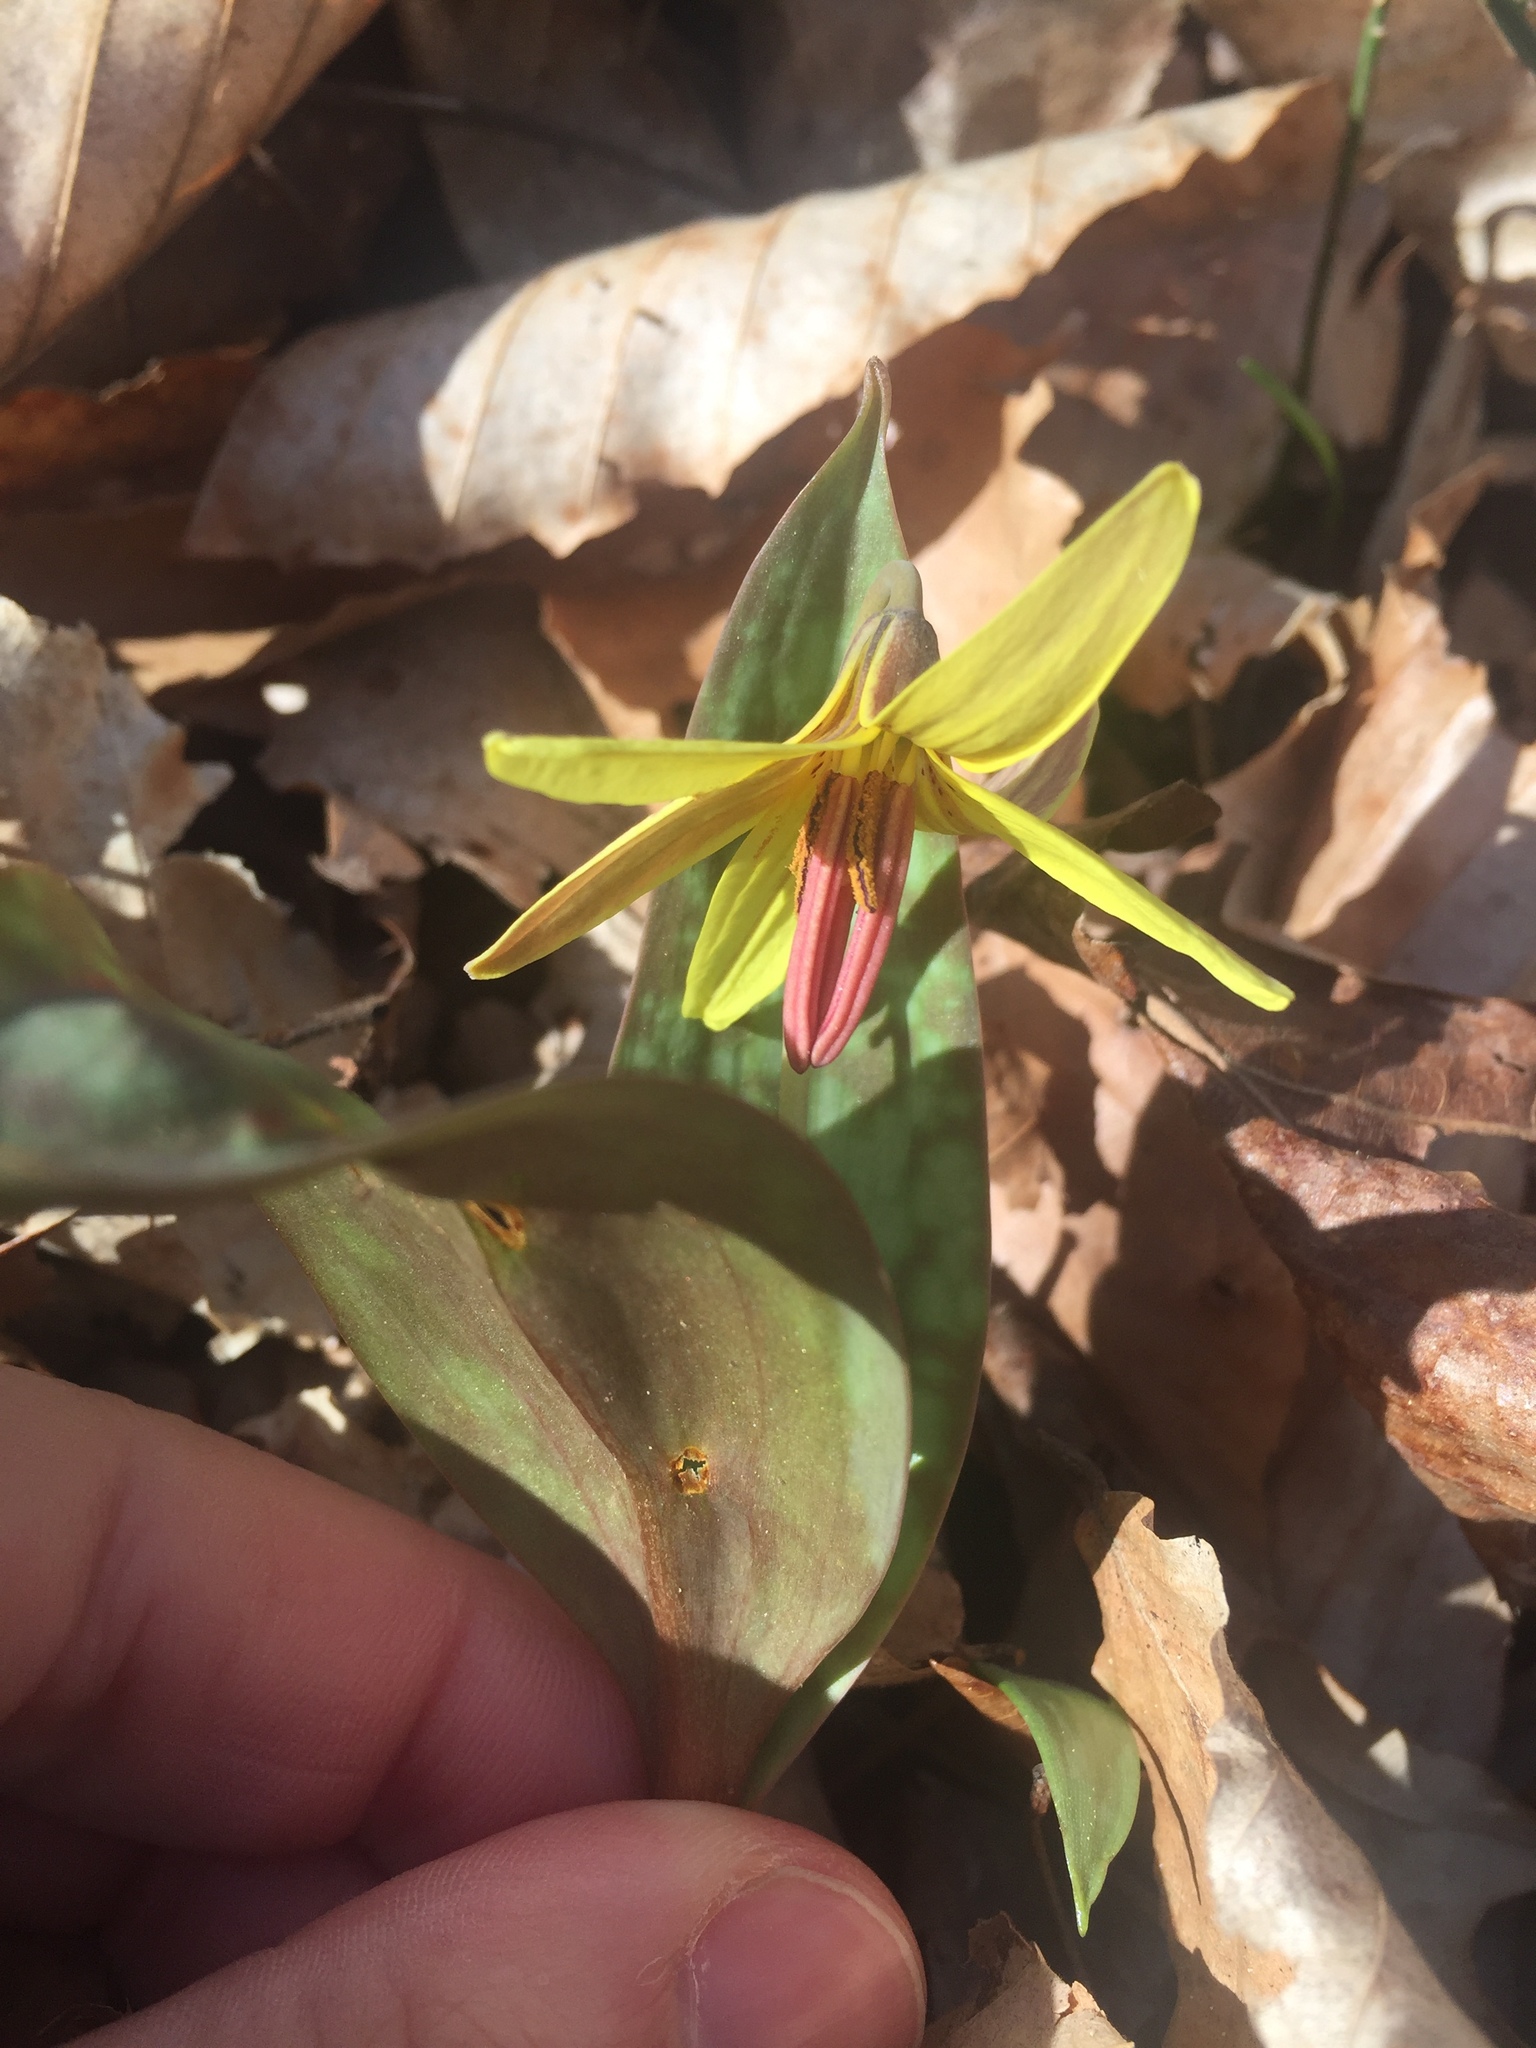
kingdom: Plantae
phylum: Tracheophyta
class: Liliopsida
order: Liliales
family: Liliaceae
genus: Erythronium
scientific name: Erythronium umbilicatum
